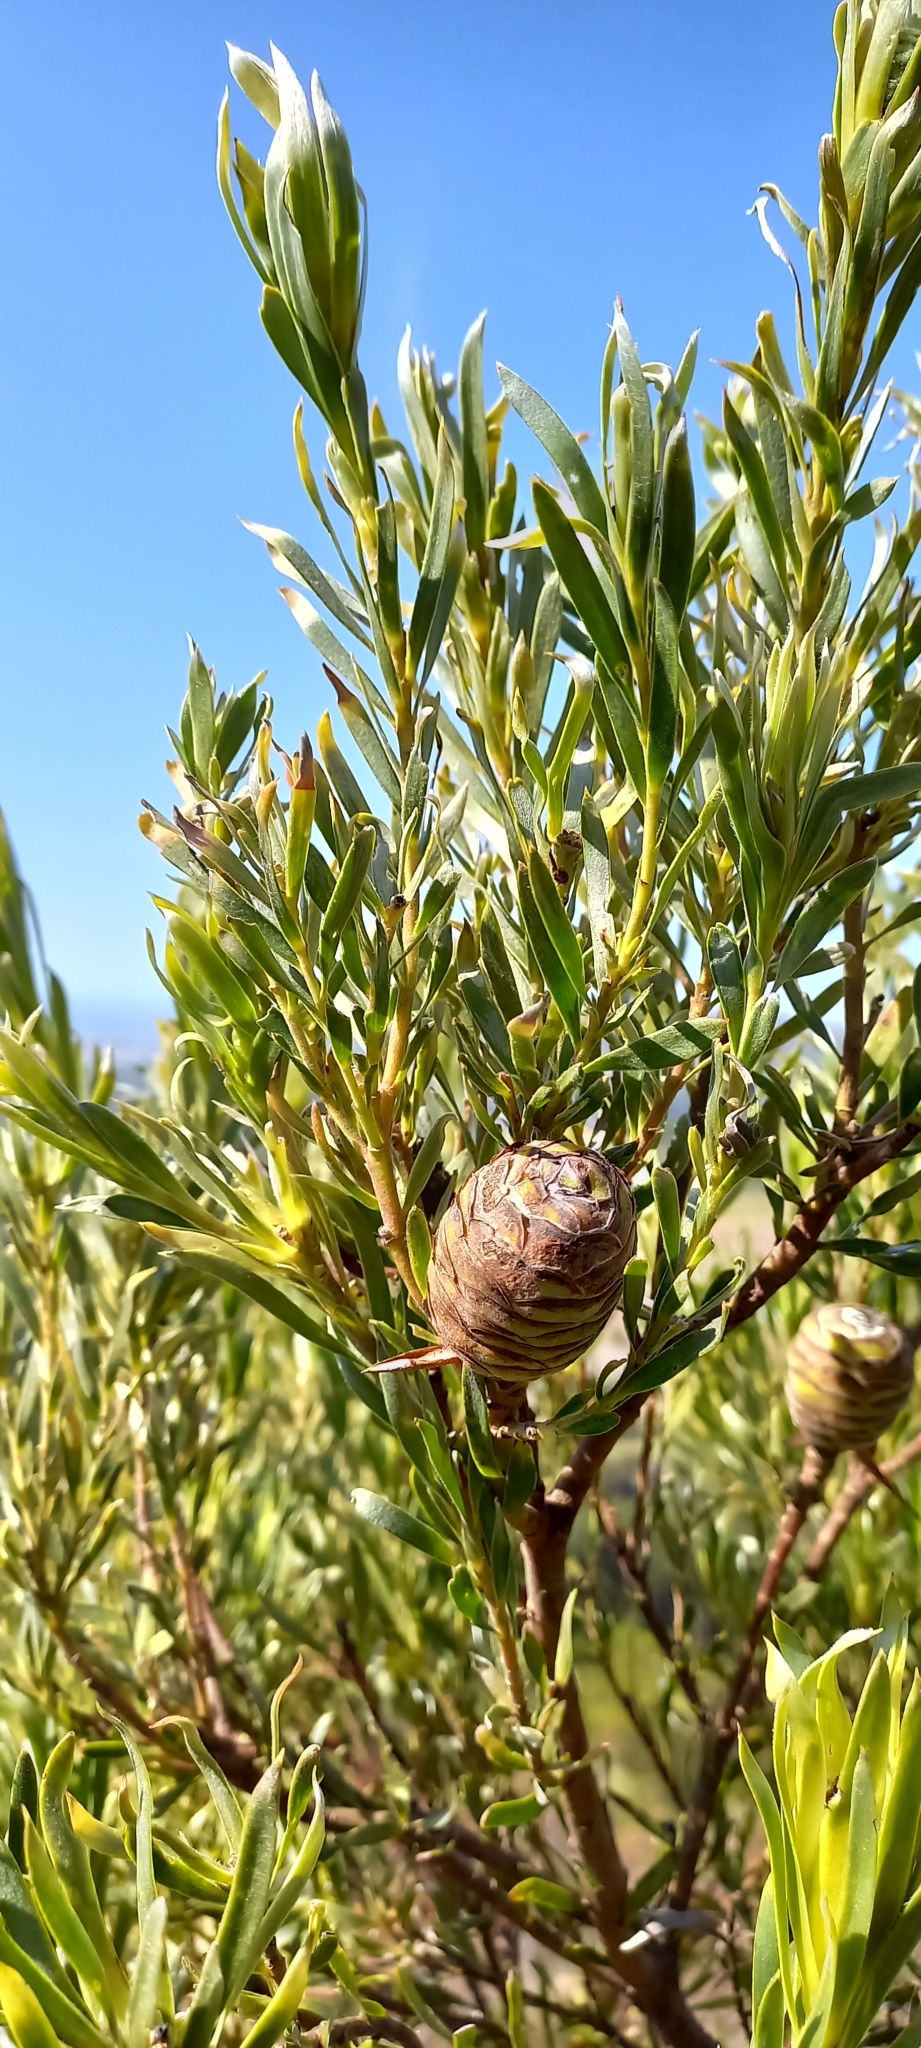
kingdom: Plantae
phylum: Tracheophyta
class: Magnoliopsida
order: Proteales
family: Proteaceae
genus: Leucadendron
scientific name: Leucadendron xanthoconus
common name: Sickle-leaf conebush
